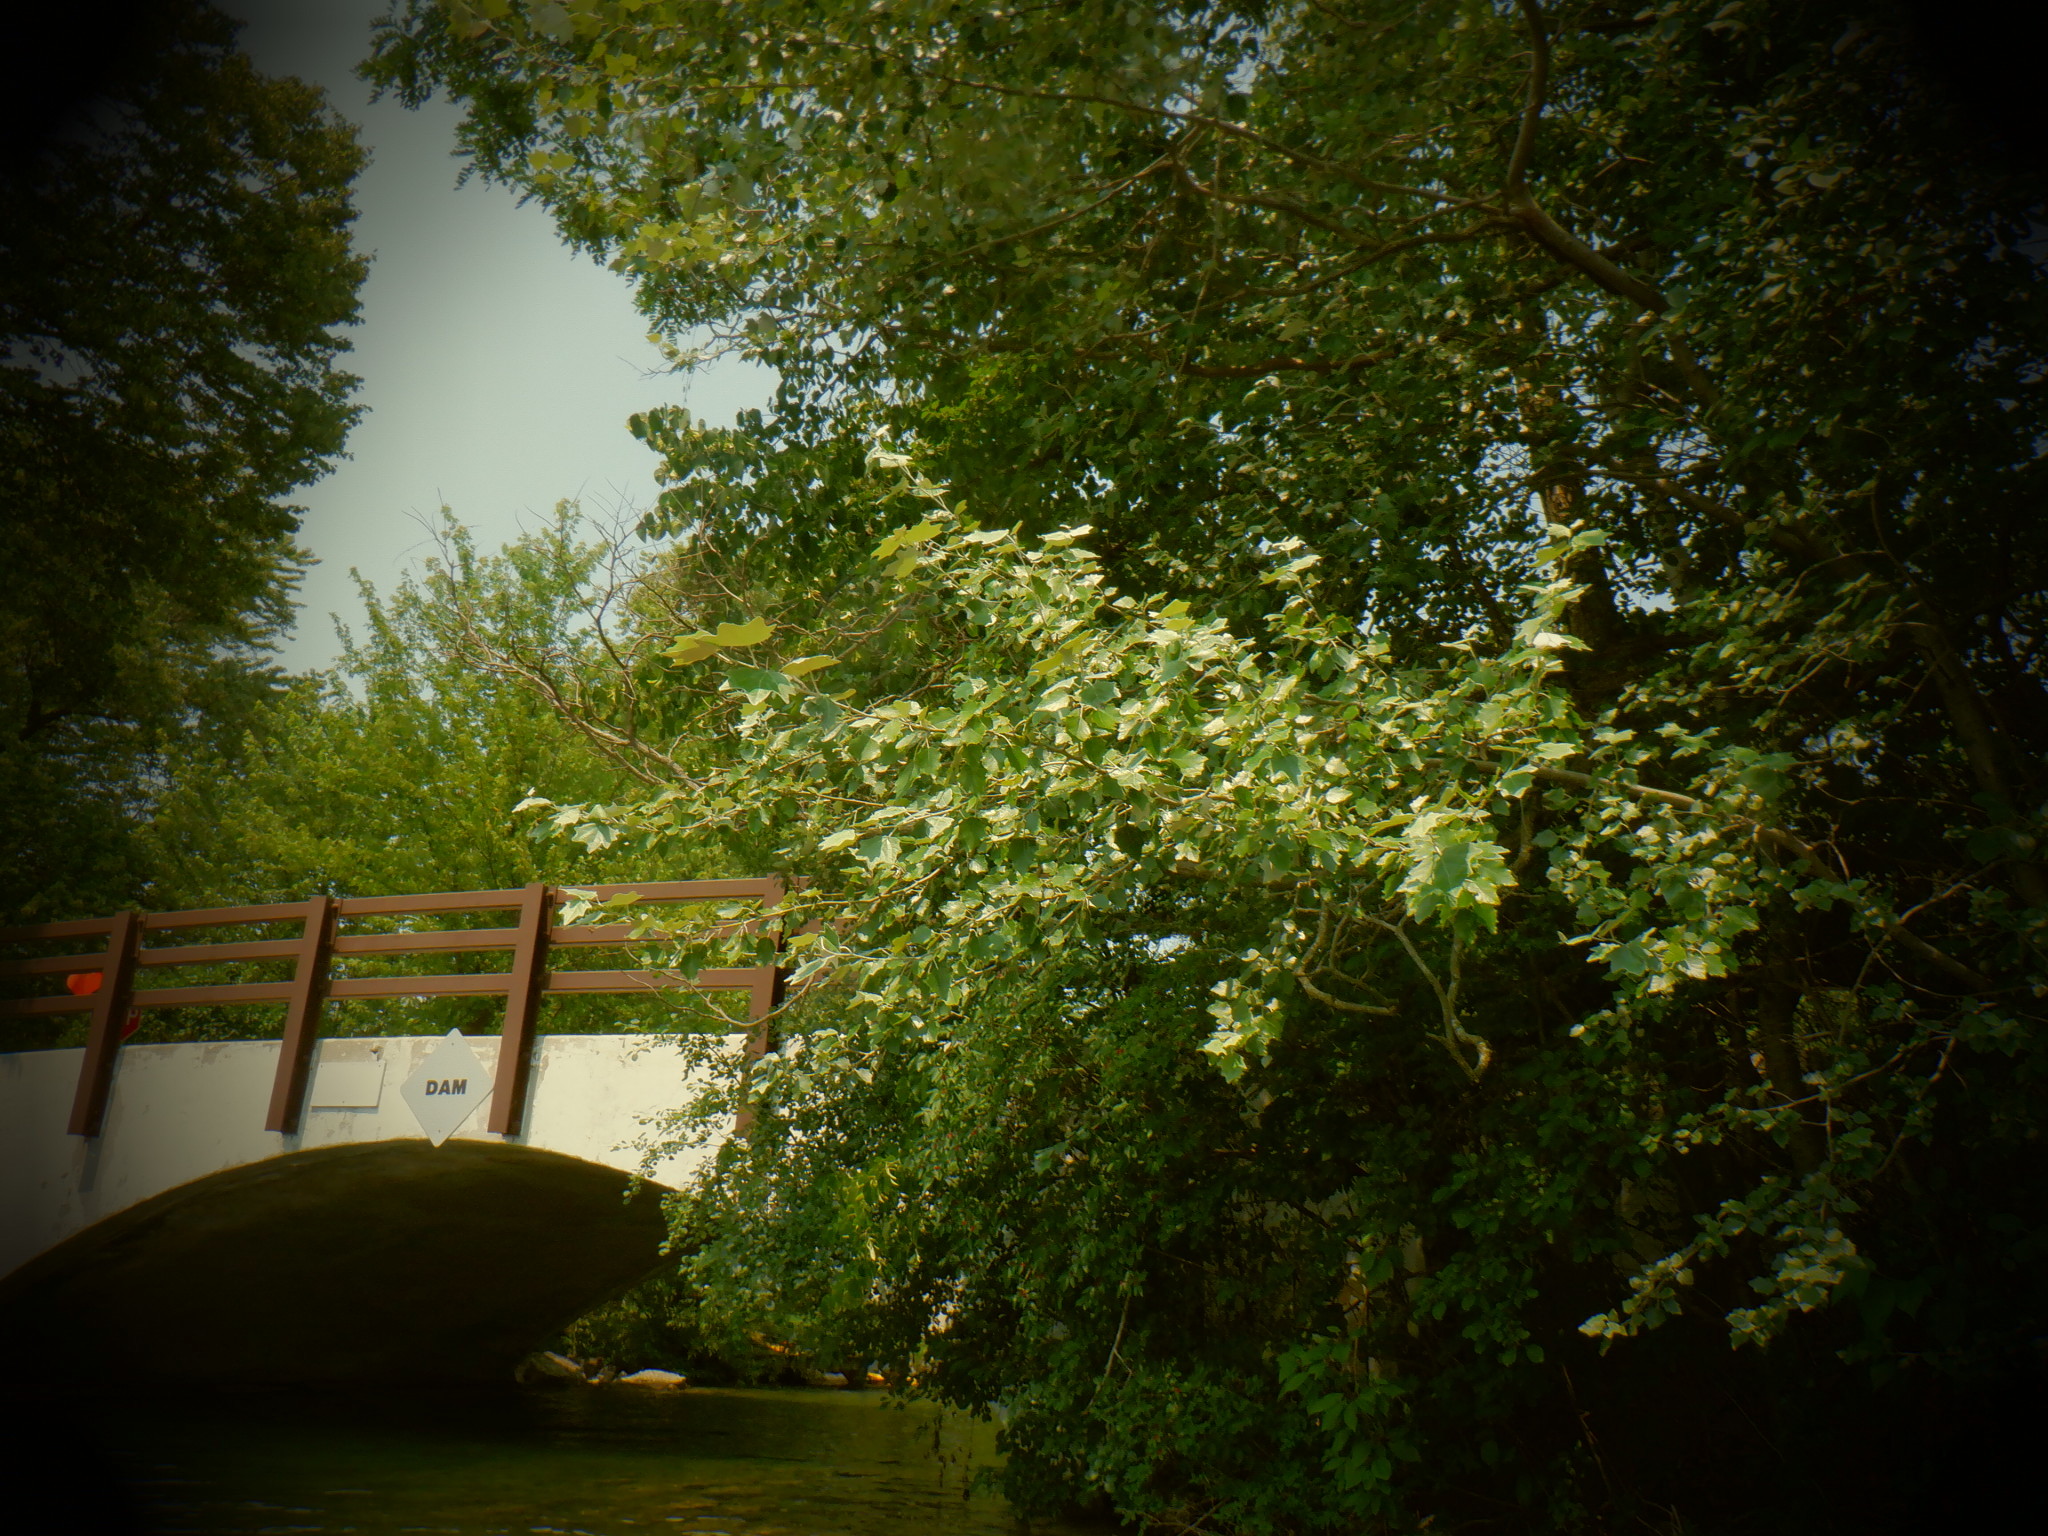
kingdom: Plantae
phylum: Tracheophyta
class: Magnoliopsida
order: Malpighiales
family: Salicaceae
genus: Populus
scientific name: Populus alba
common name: White poplar
